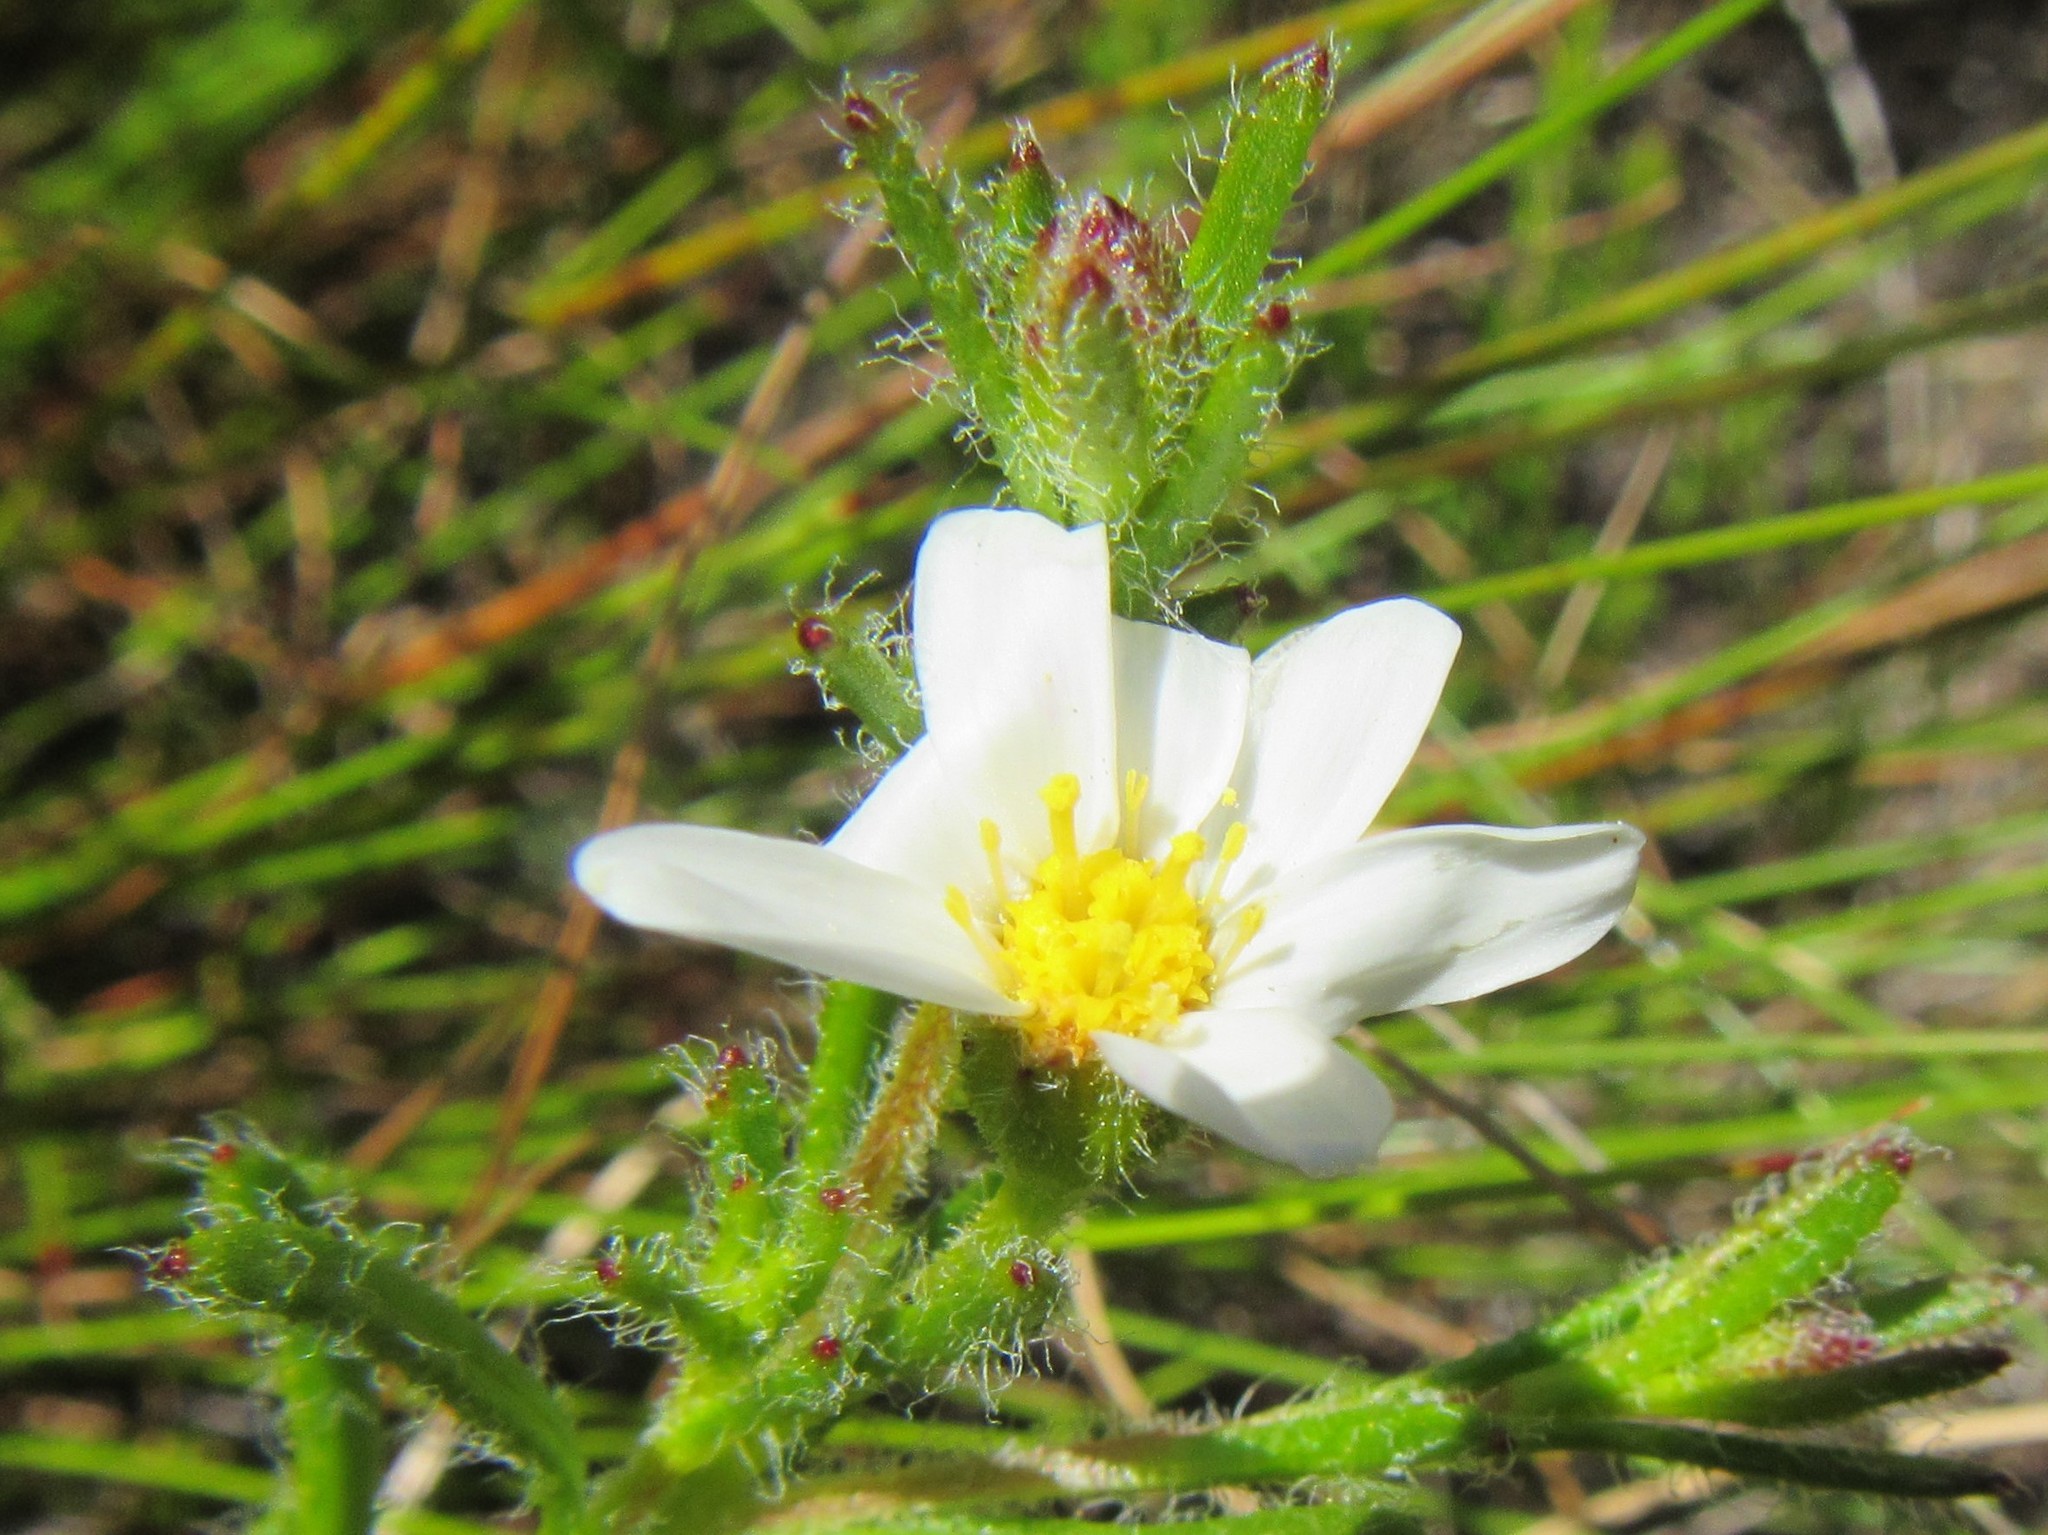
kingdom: Plantae
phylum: Tracheophyta
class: Magnoliopsida
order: Asterales
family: Asteraceae
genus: Zyrphelis
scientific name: Zyrphelis foliosa
